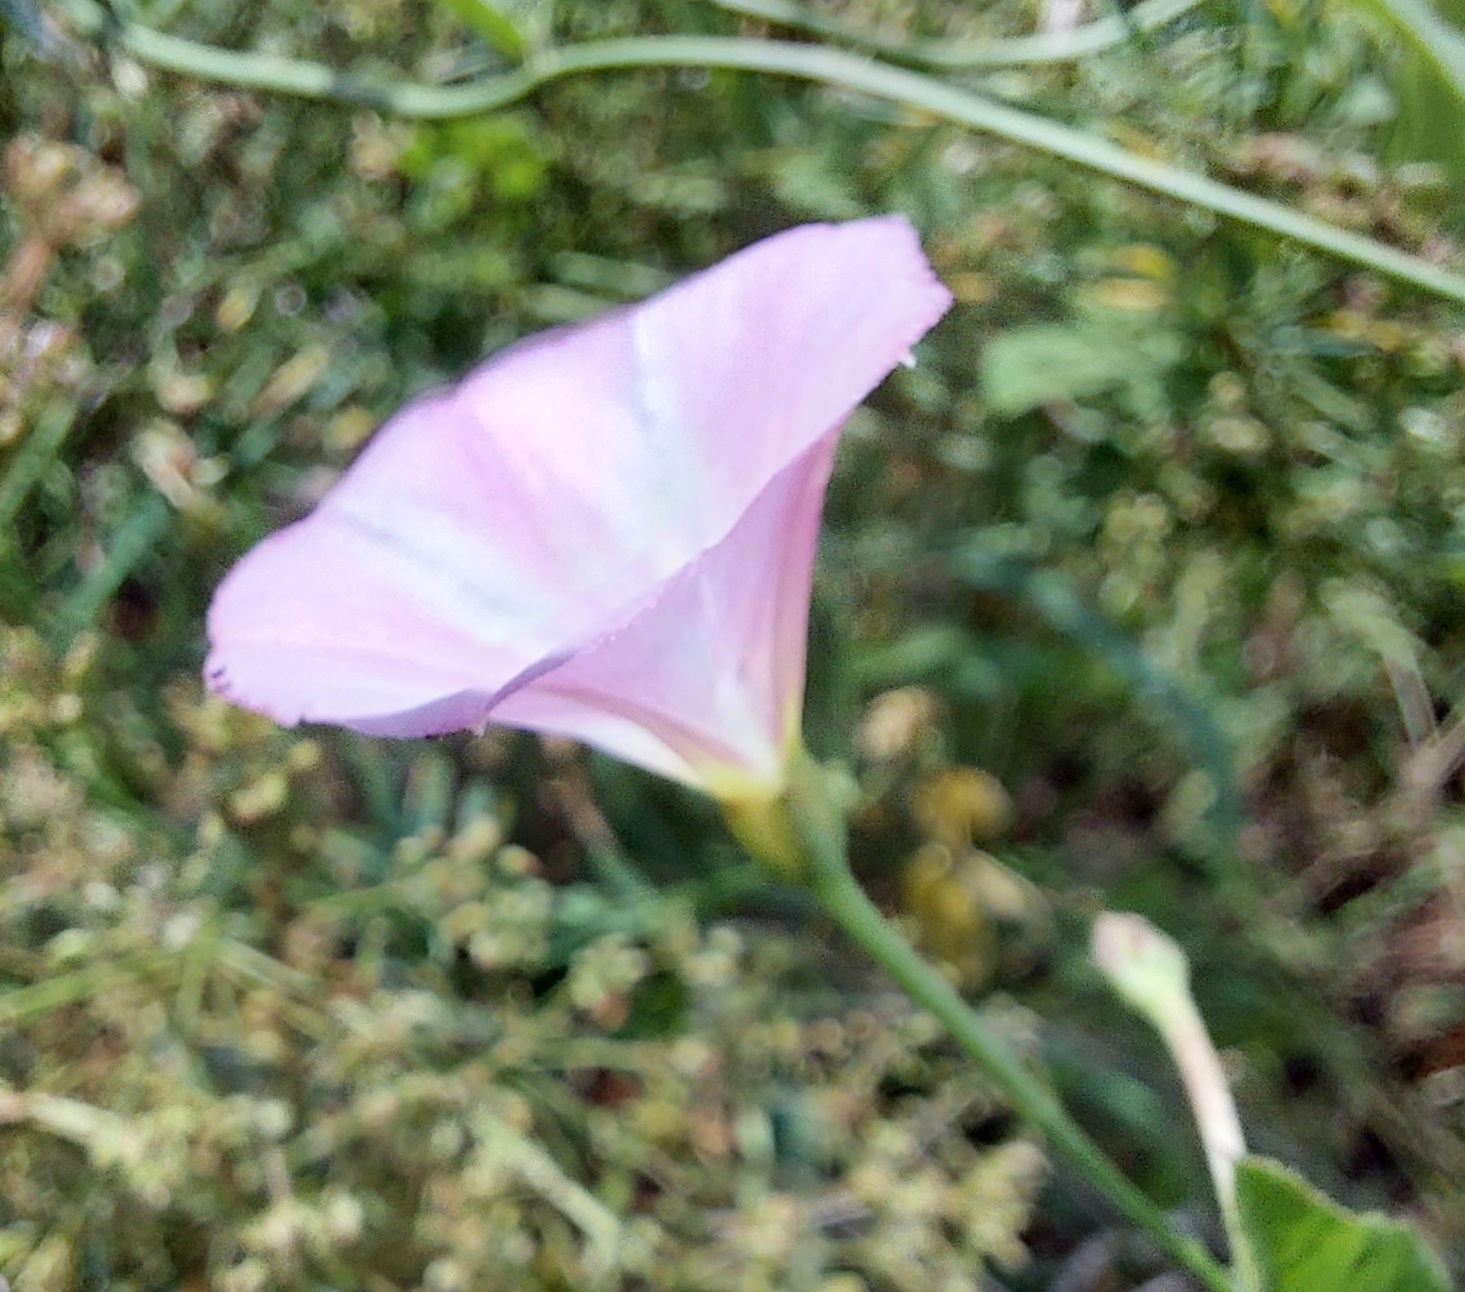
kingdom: Plantae
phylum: Tracheophyta
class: Magnoliopsida
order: Solanales
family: Convolvulaceae
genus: Convolvulus
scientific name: Convolvulus arvensis
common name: Field bindweed
